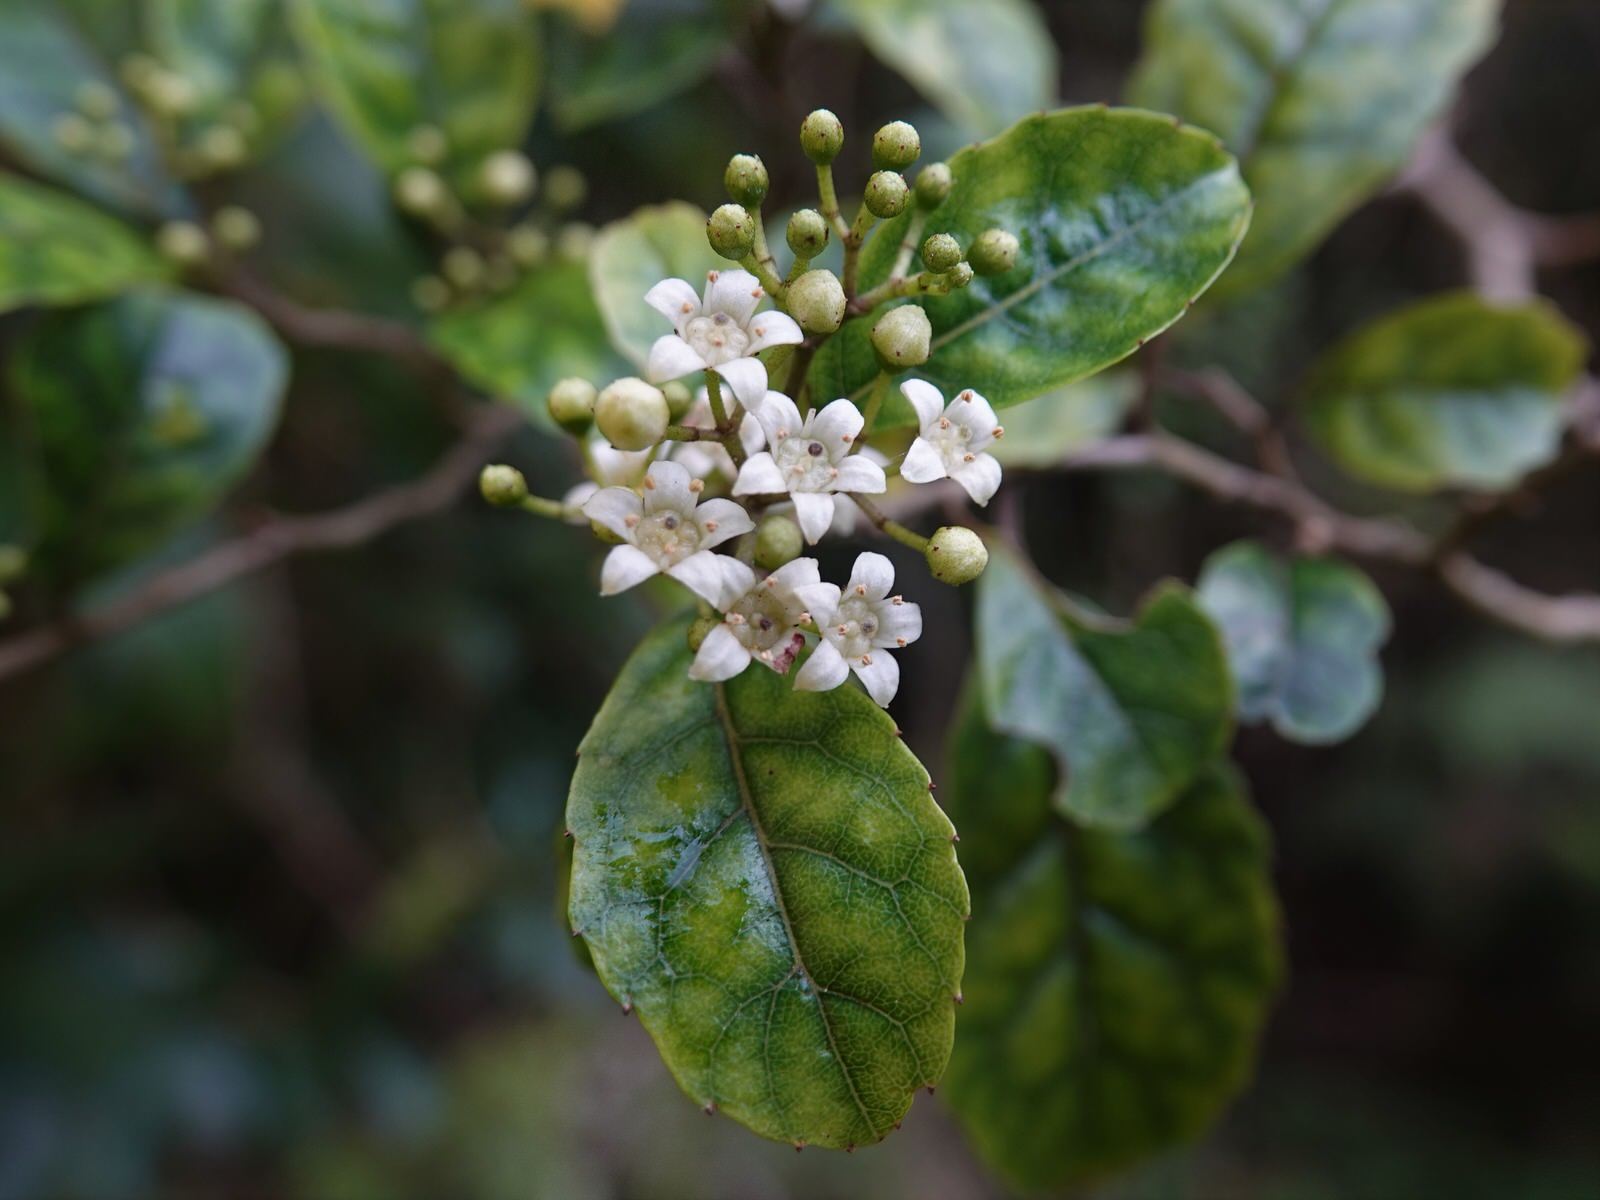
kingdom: Plantae
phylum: Tracheophyta
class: Magnoliopsida
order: Asterales
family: Rousseaceae
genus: Carpodetus
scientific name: Carpodetus serratus
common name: White mapau
